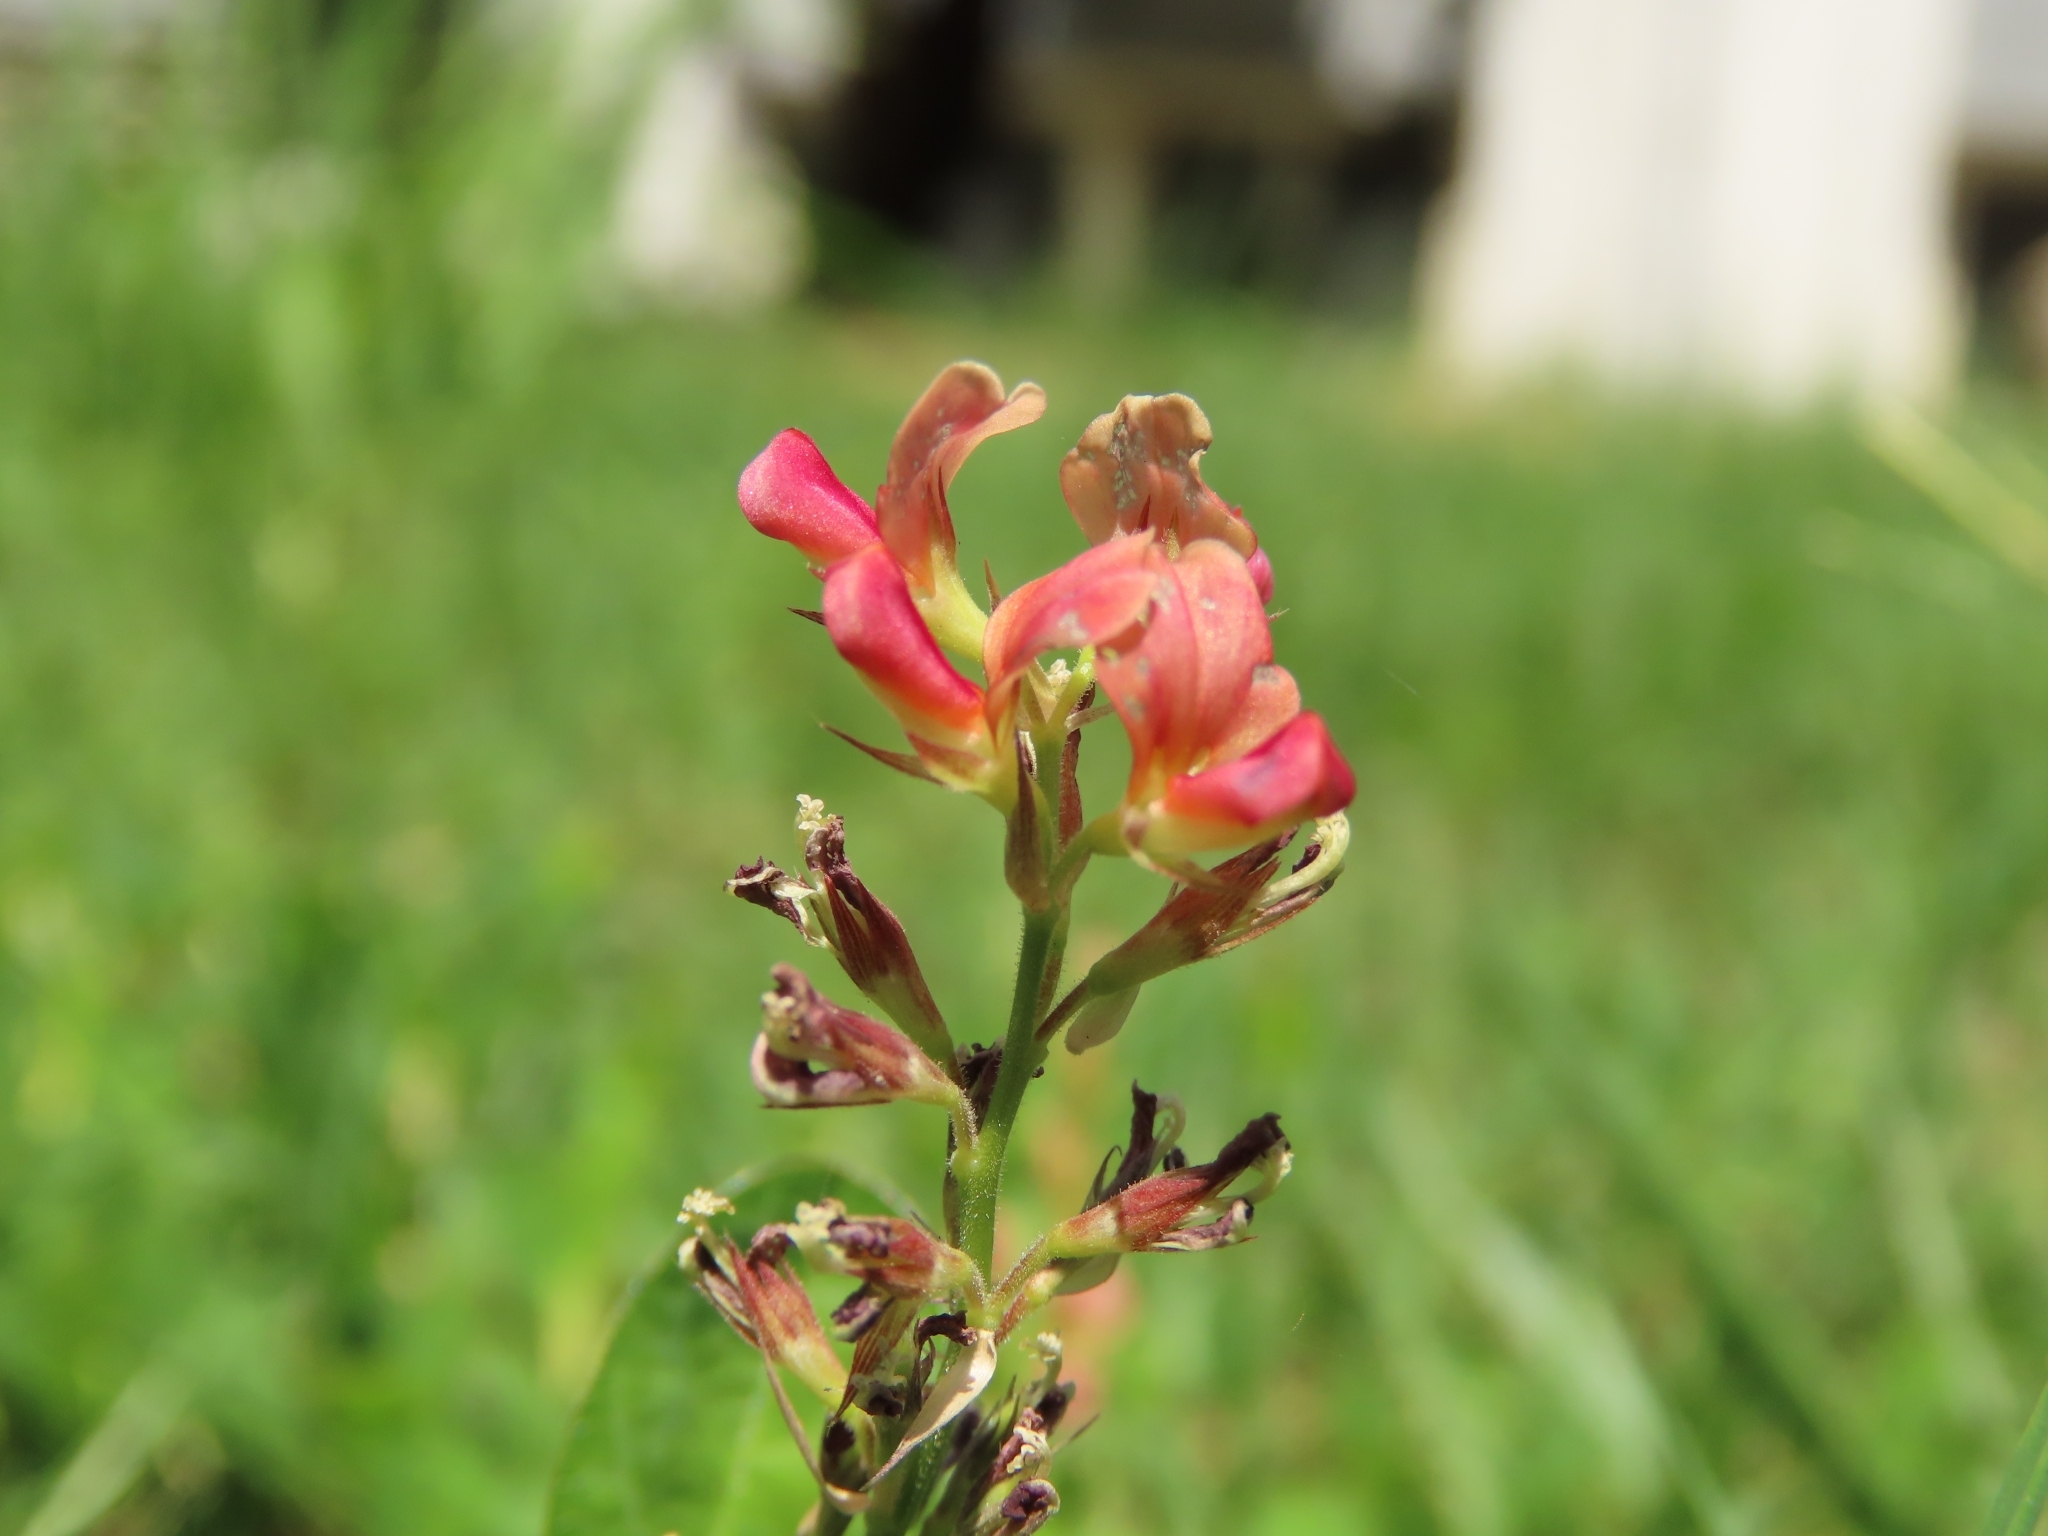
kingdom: Plantae
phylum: Tracheophyta
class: Magnoliopsida
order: Fabales
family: Fabaceae
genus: Alysicarpus
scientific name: Alysicarpus vaginalis
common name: White moneywort
